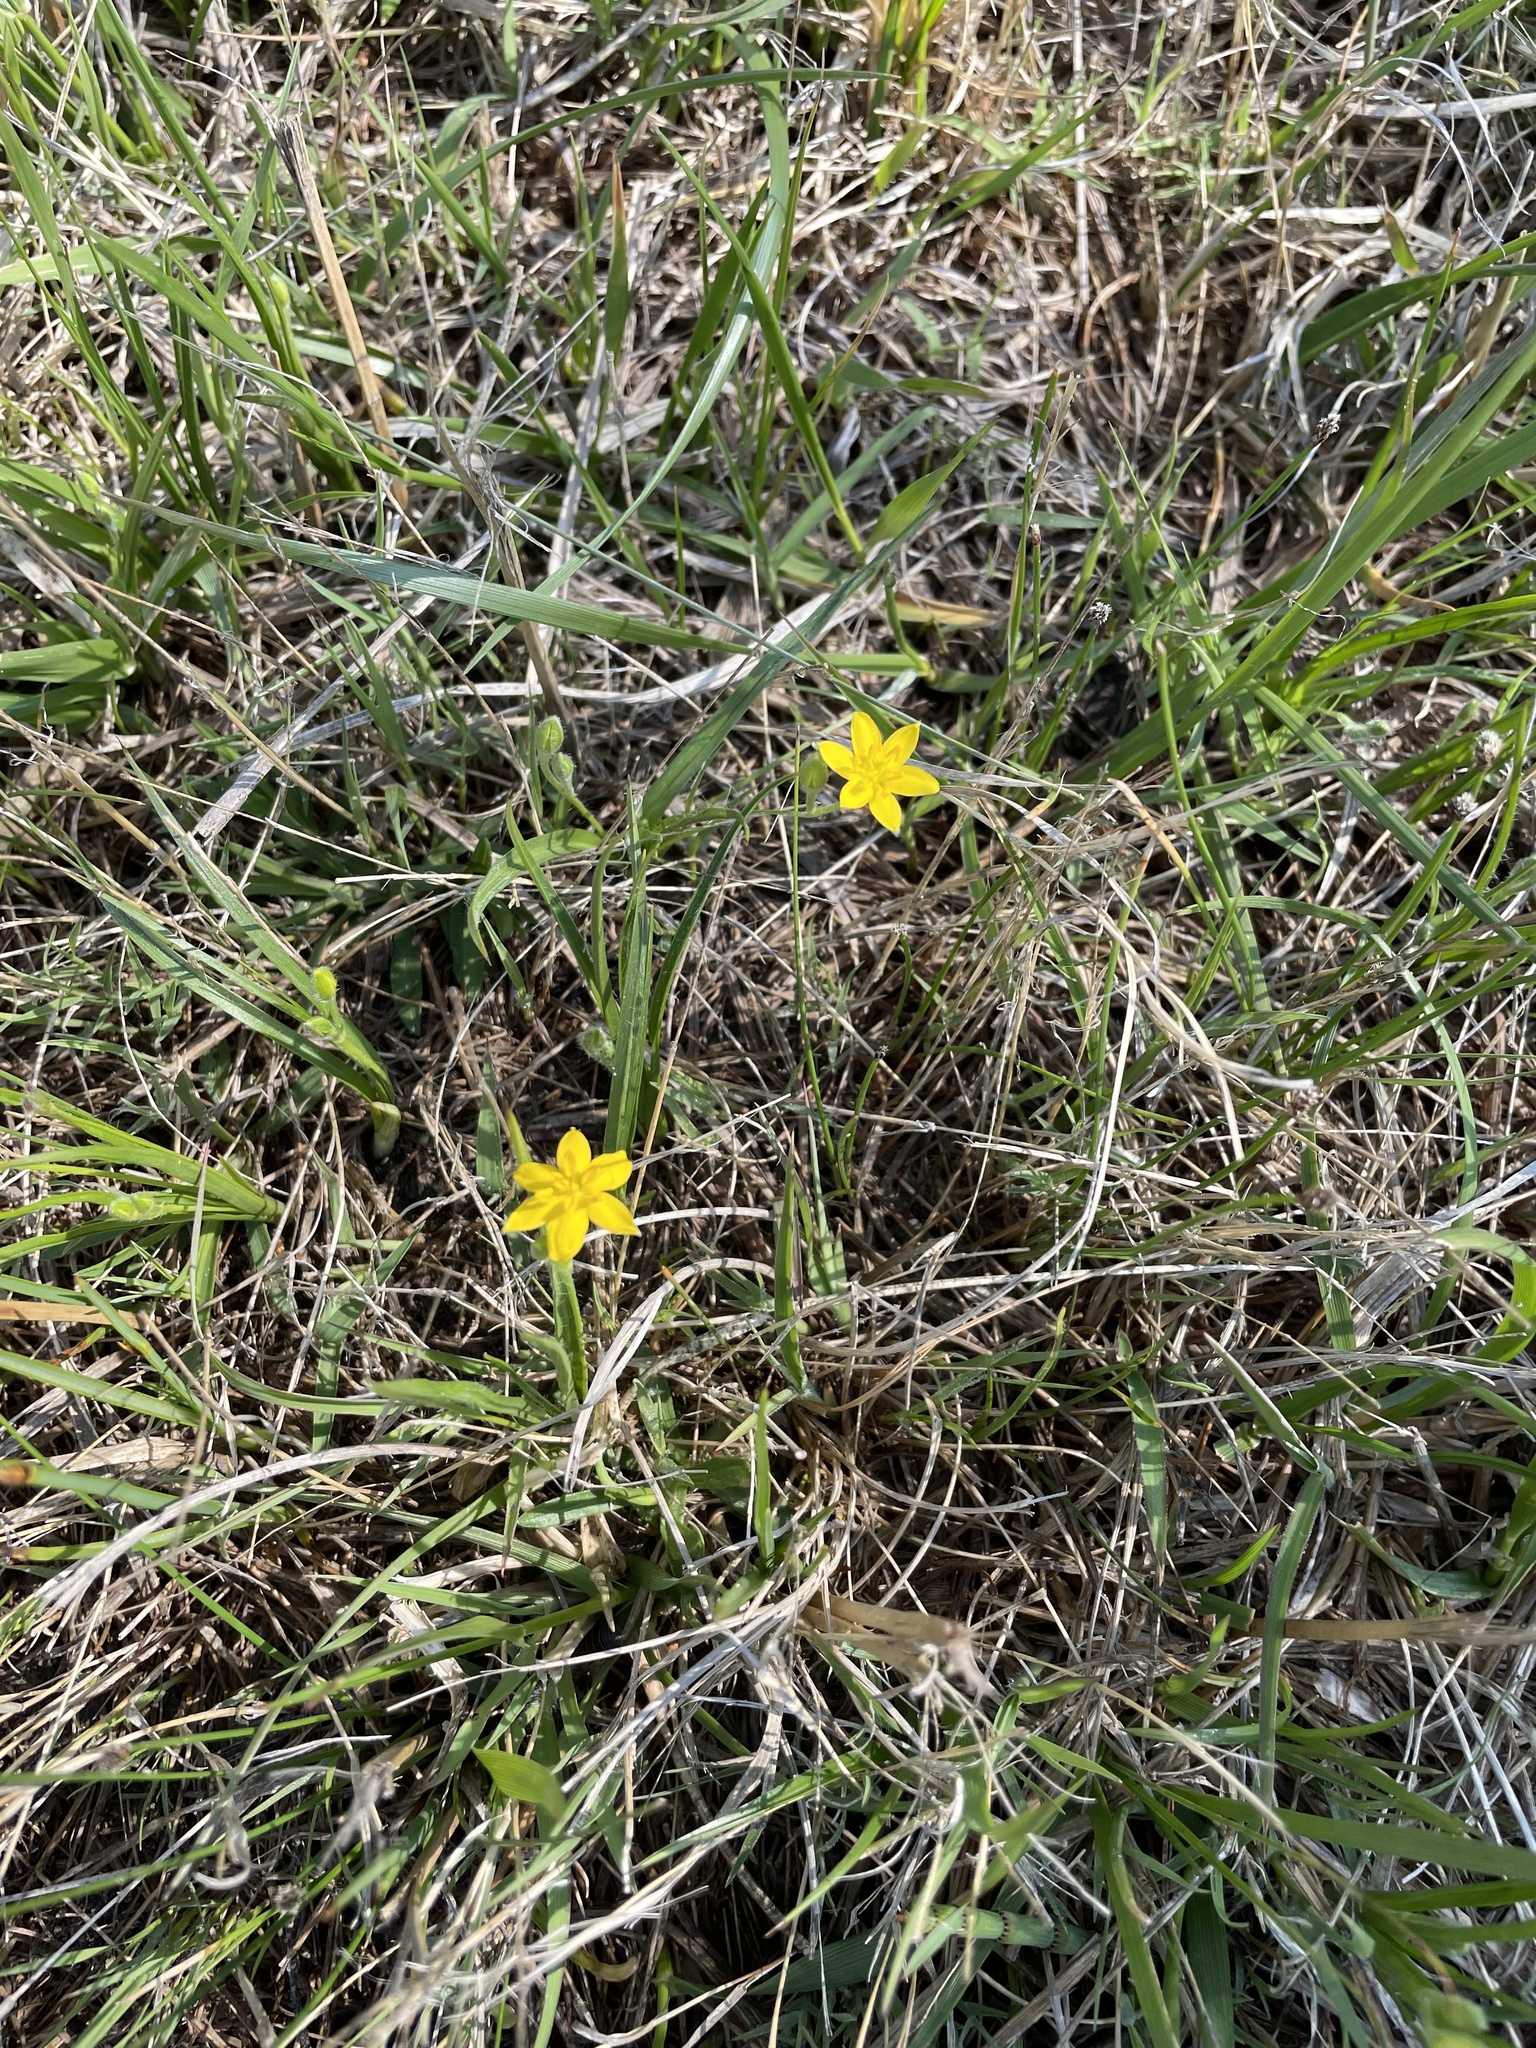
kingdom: Plantae
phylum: Tracheophyta
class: Liliopsida
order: Asparagales
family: Hypoxidaceae
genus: Hypoxis
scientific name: Hypoxis hirsuta
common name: Common goldstar
